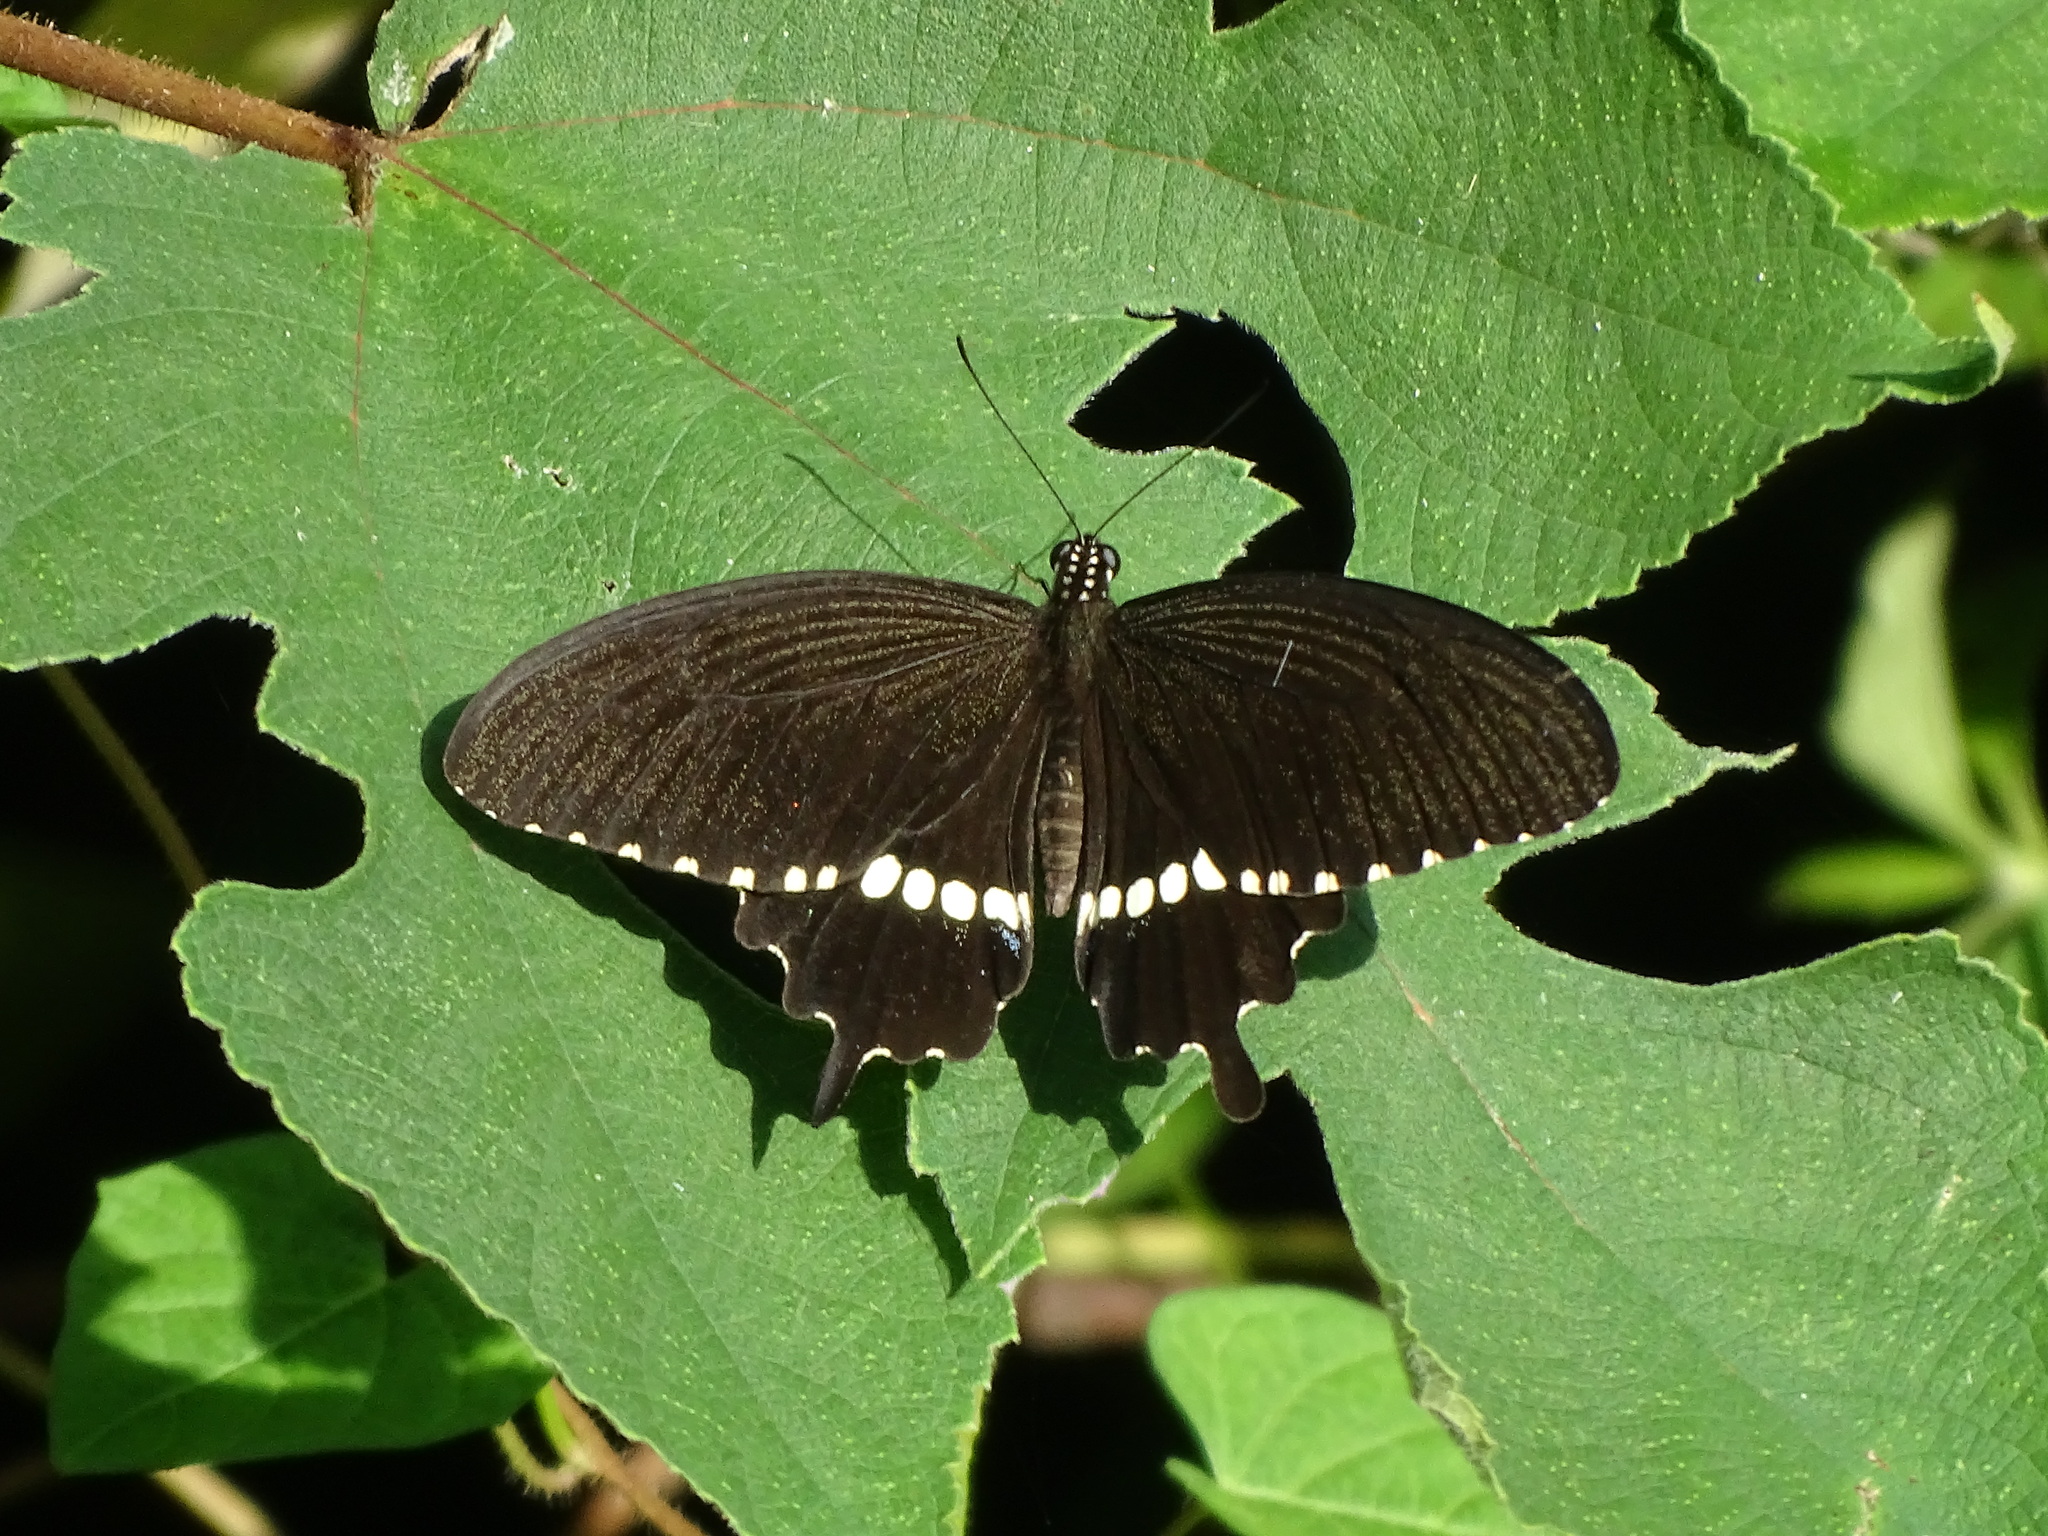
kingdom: Animalia
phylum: Arthropoda
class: Insecta
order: Lepidoptera
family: Papilionidae
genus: Papilio
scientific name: Papilio polytes
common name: Common mormon
